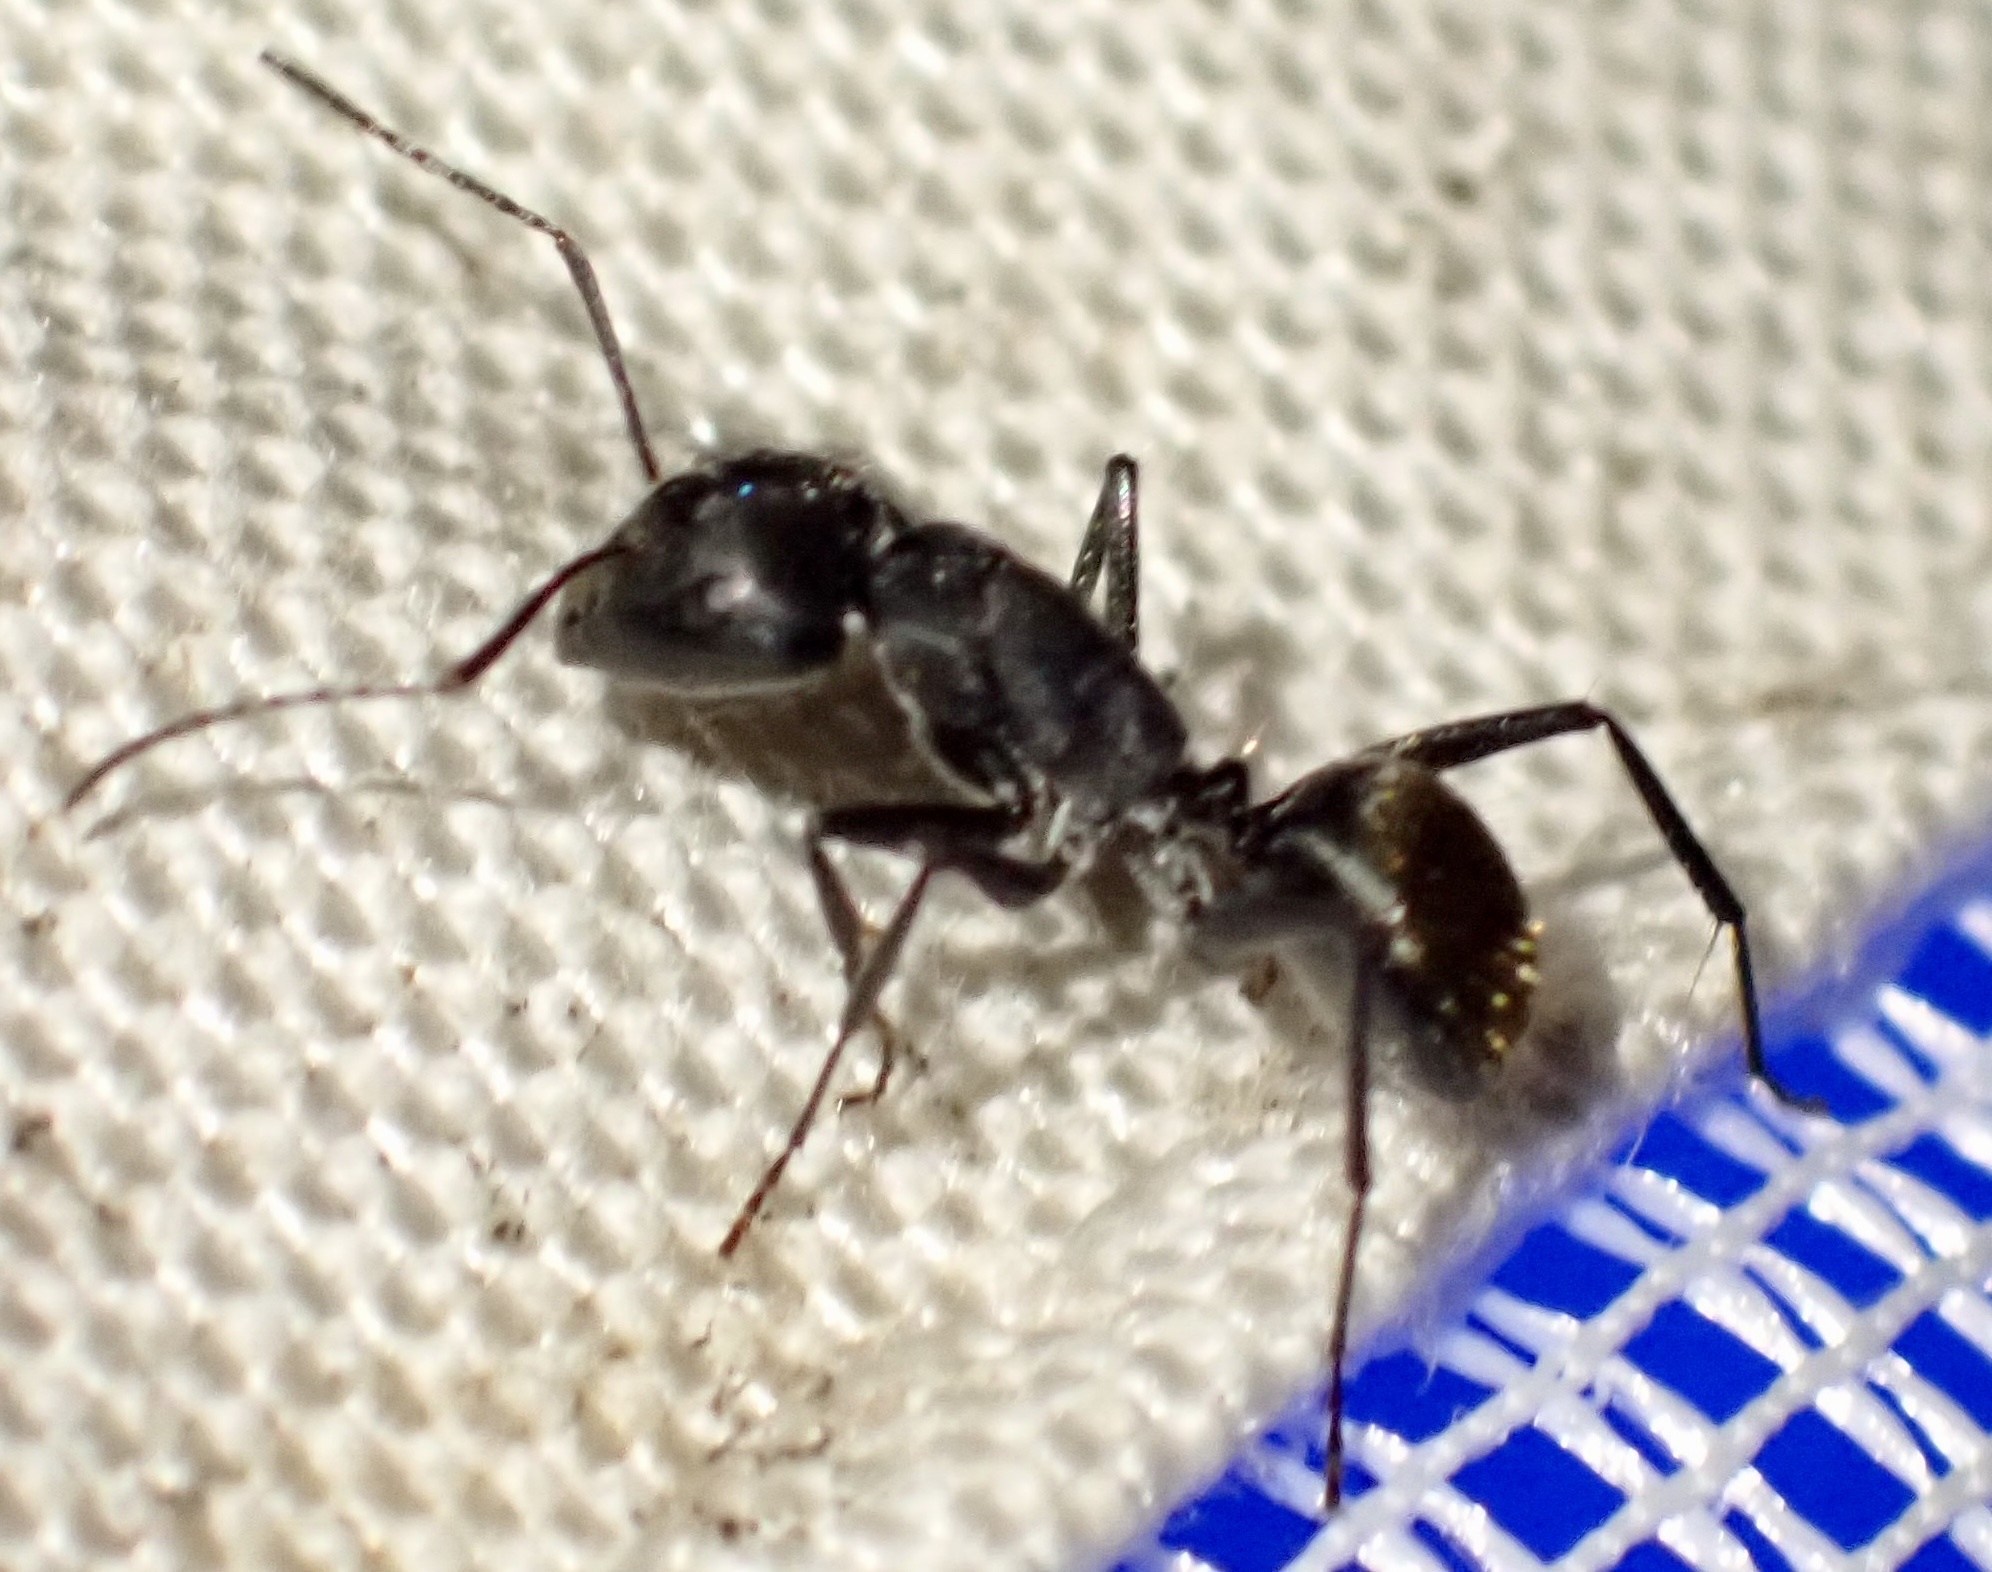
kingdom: Animalia
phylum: Arthropoda
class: Insecta
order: Hymenoptera
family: Formicidae
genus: Camponotus
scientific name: Camponotus aeneopilosus
